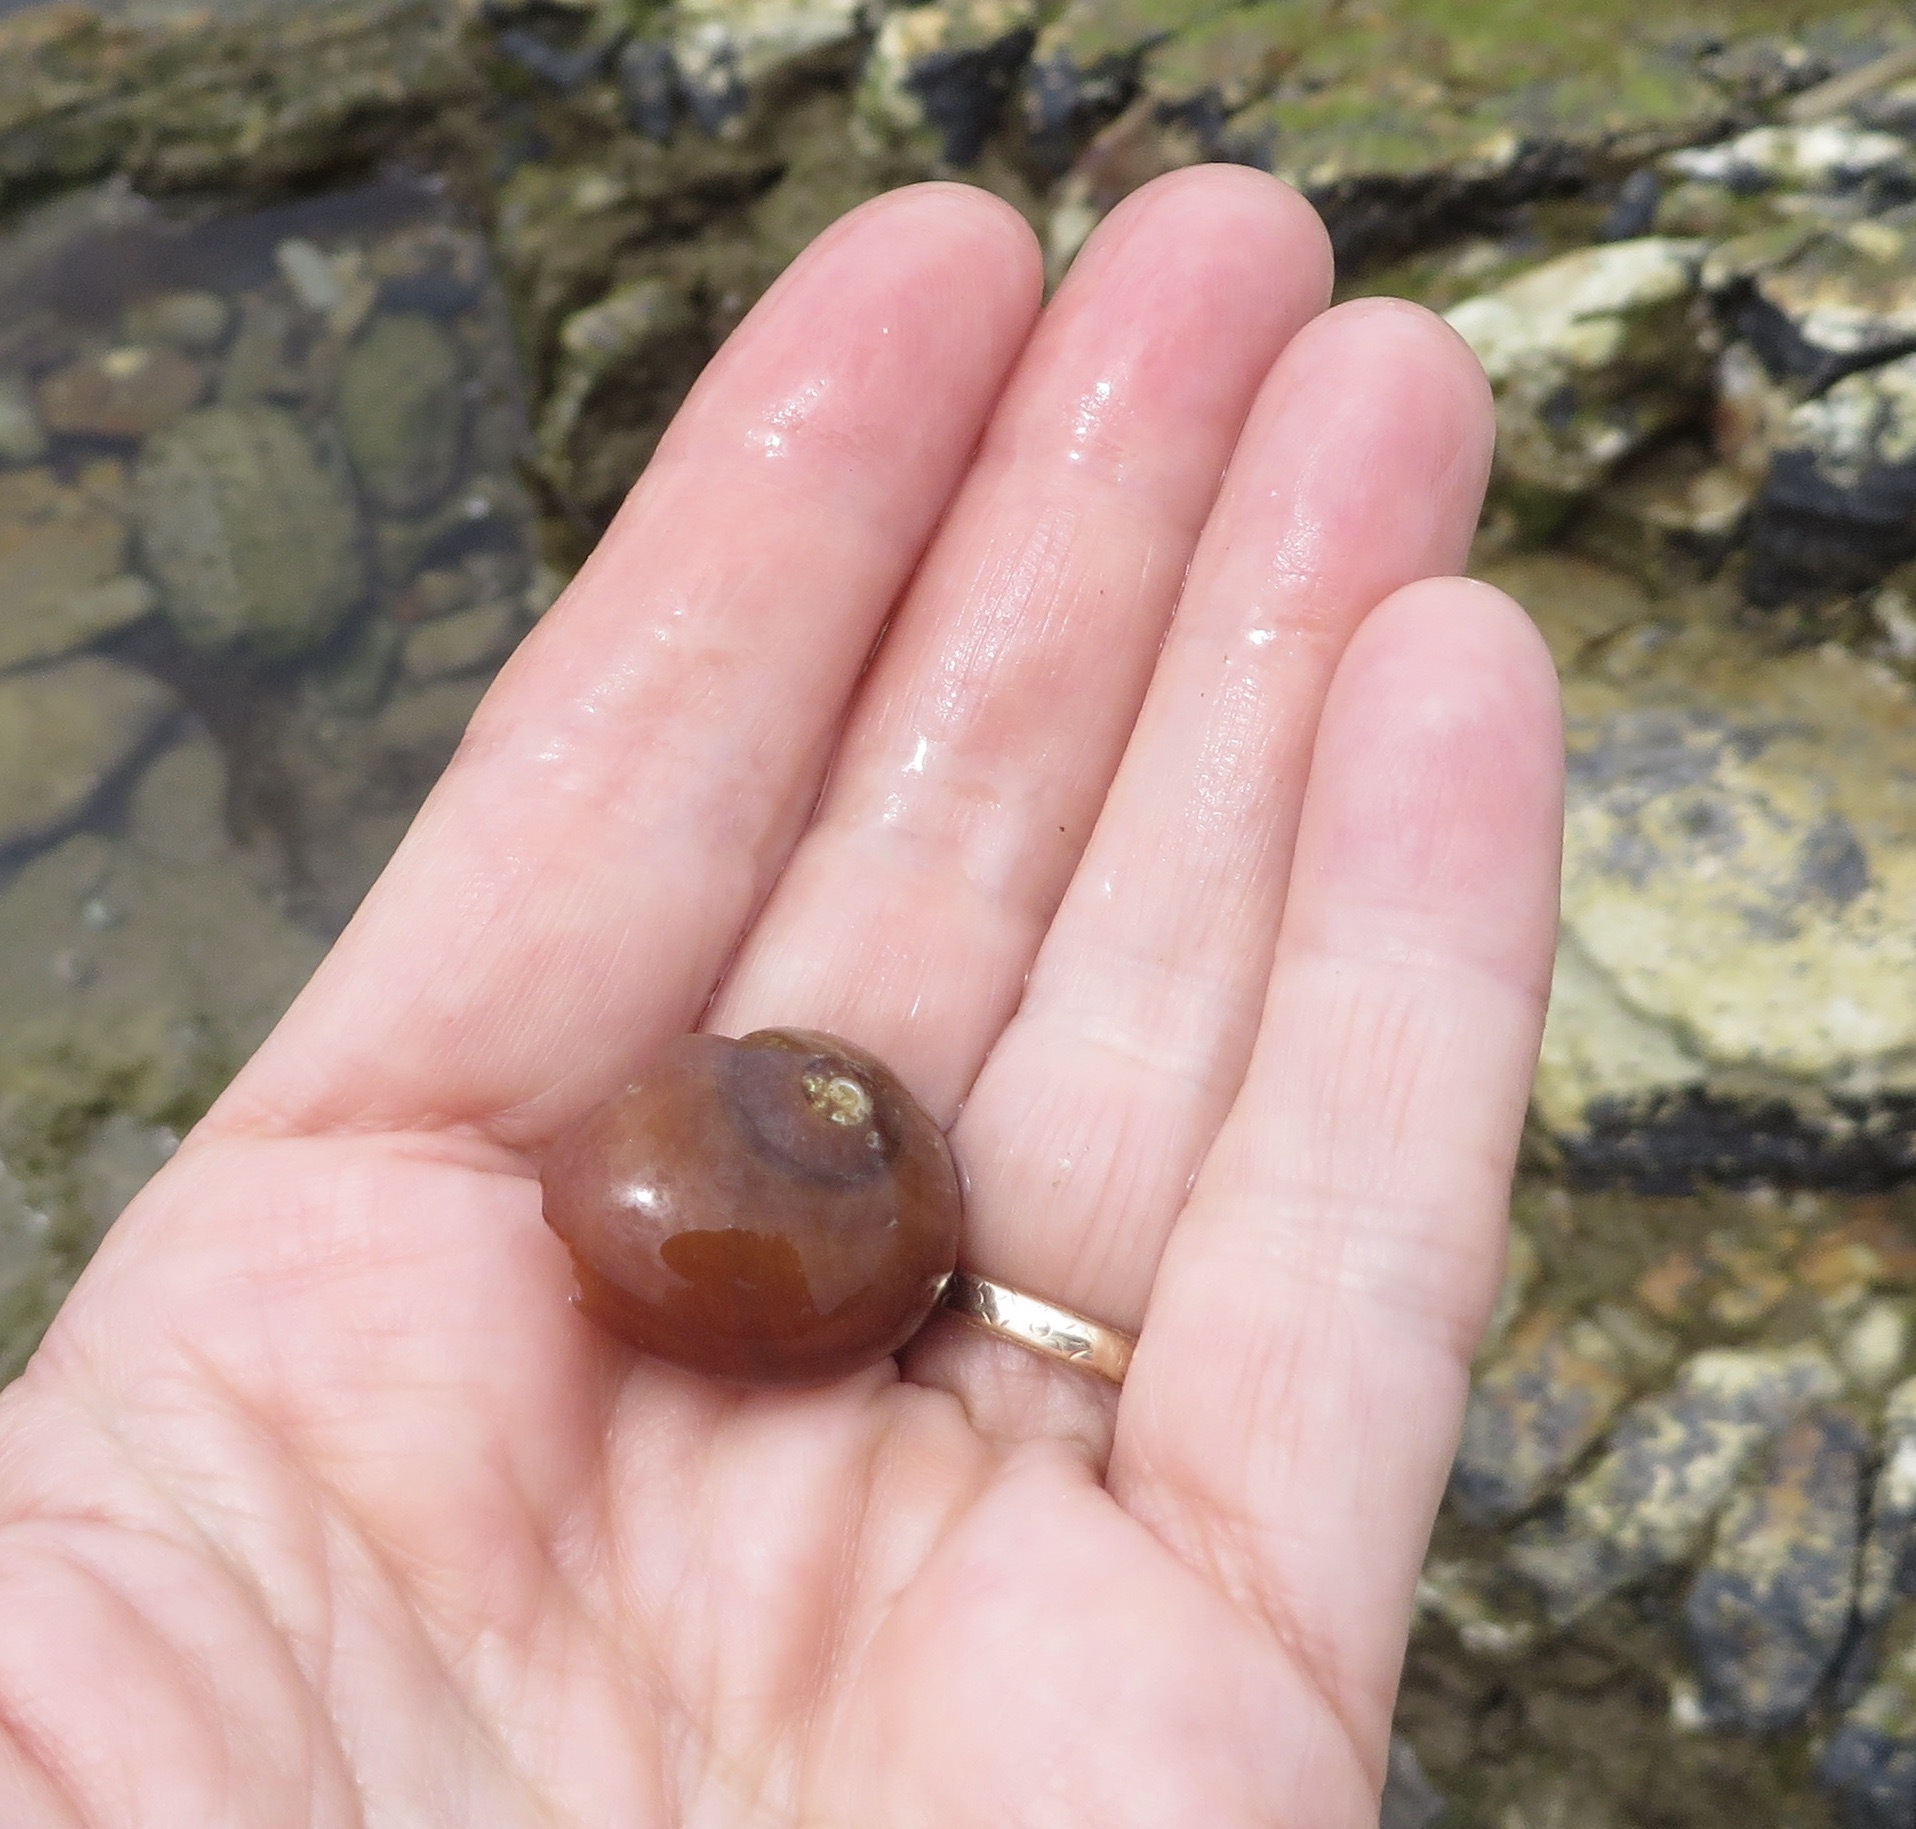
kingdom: Animalia
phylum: Mollusca
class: Gastropoda
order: Trochida
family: Tegulidae
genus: Norrisia
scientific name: Norrisia norrisii
